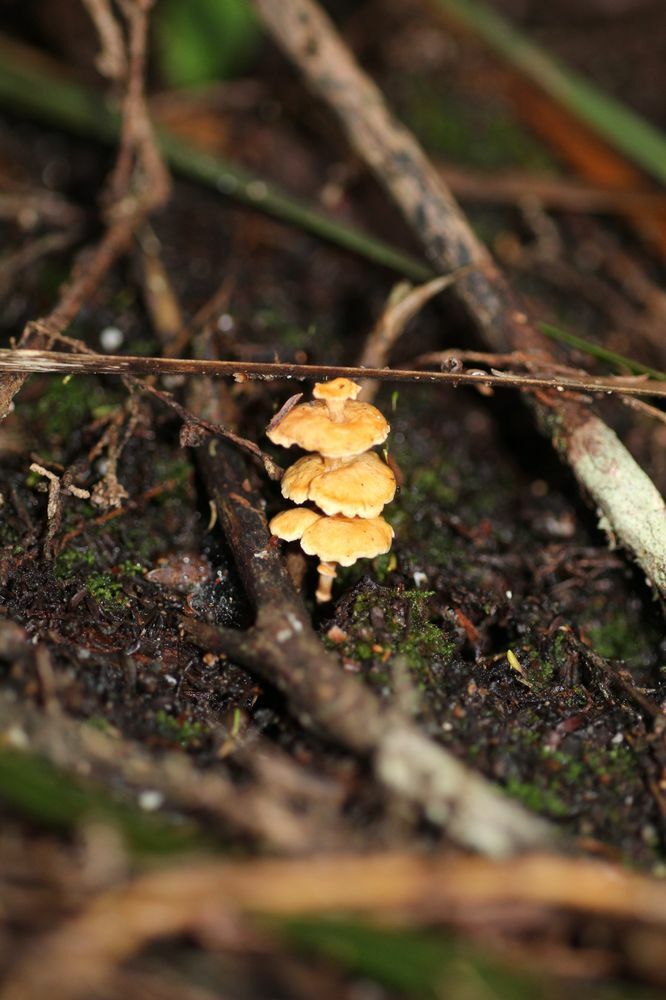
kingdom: Fungi
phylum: Basidiomycota
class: Agaricomycetes
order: Amylocorticiales
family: Amylocorticiaceae
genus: Podoserpula
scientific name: Podoserpula pusio
